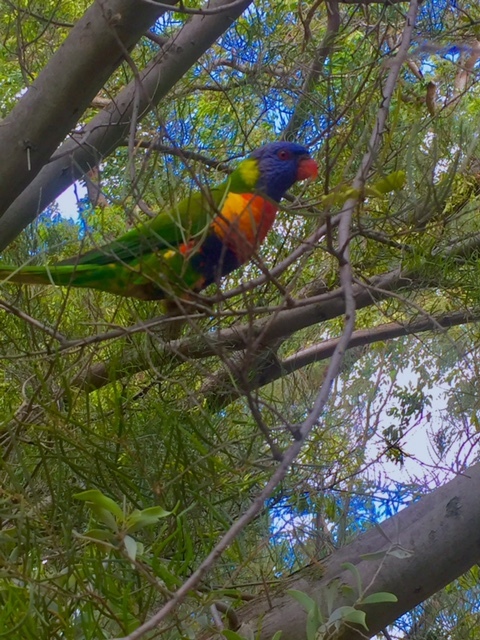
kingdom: Animalia
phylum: Chordata
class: Aves
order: Psittaciformes
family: Psittacidae
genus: Trichoglossus
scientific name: Trichoglossus haematodus
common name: Coconut lorikeet
